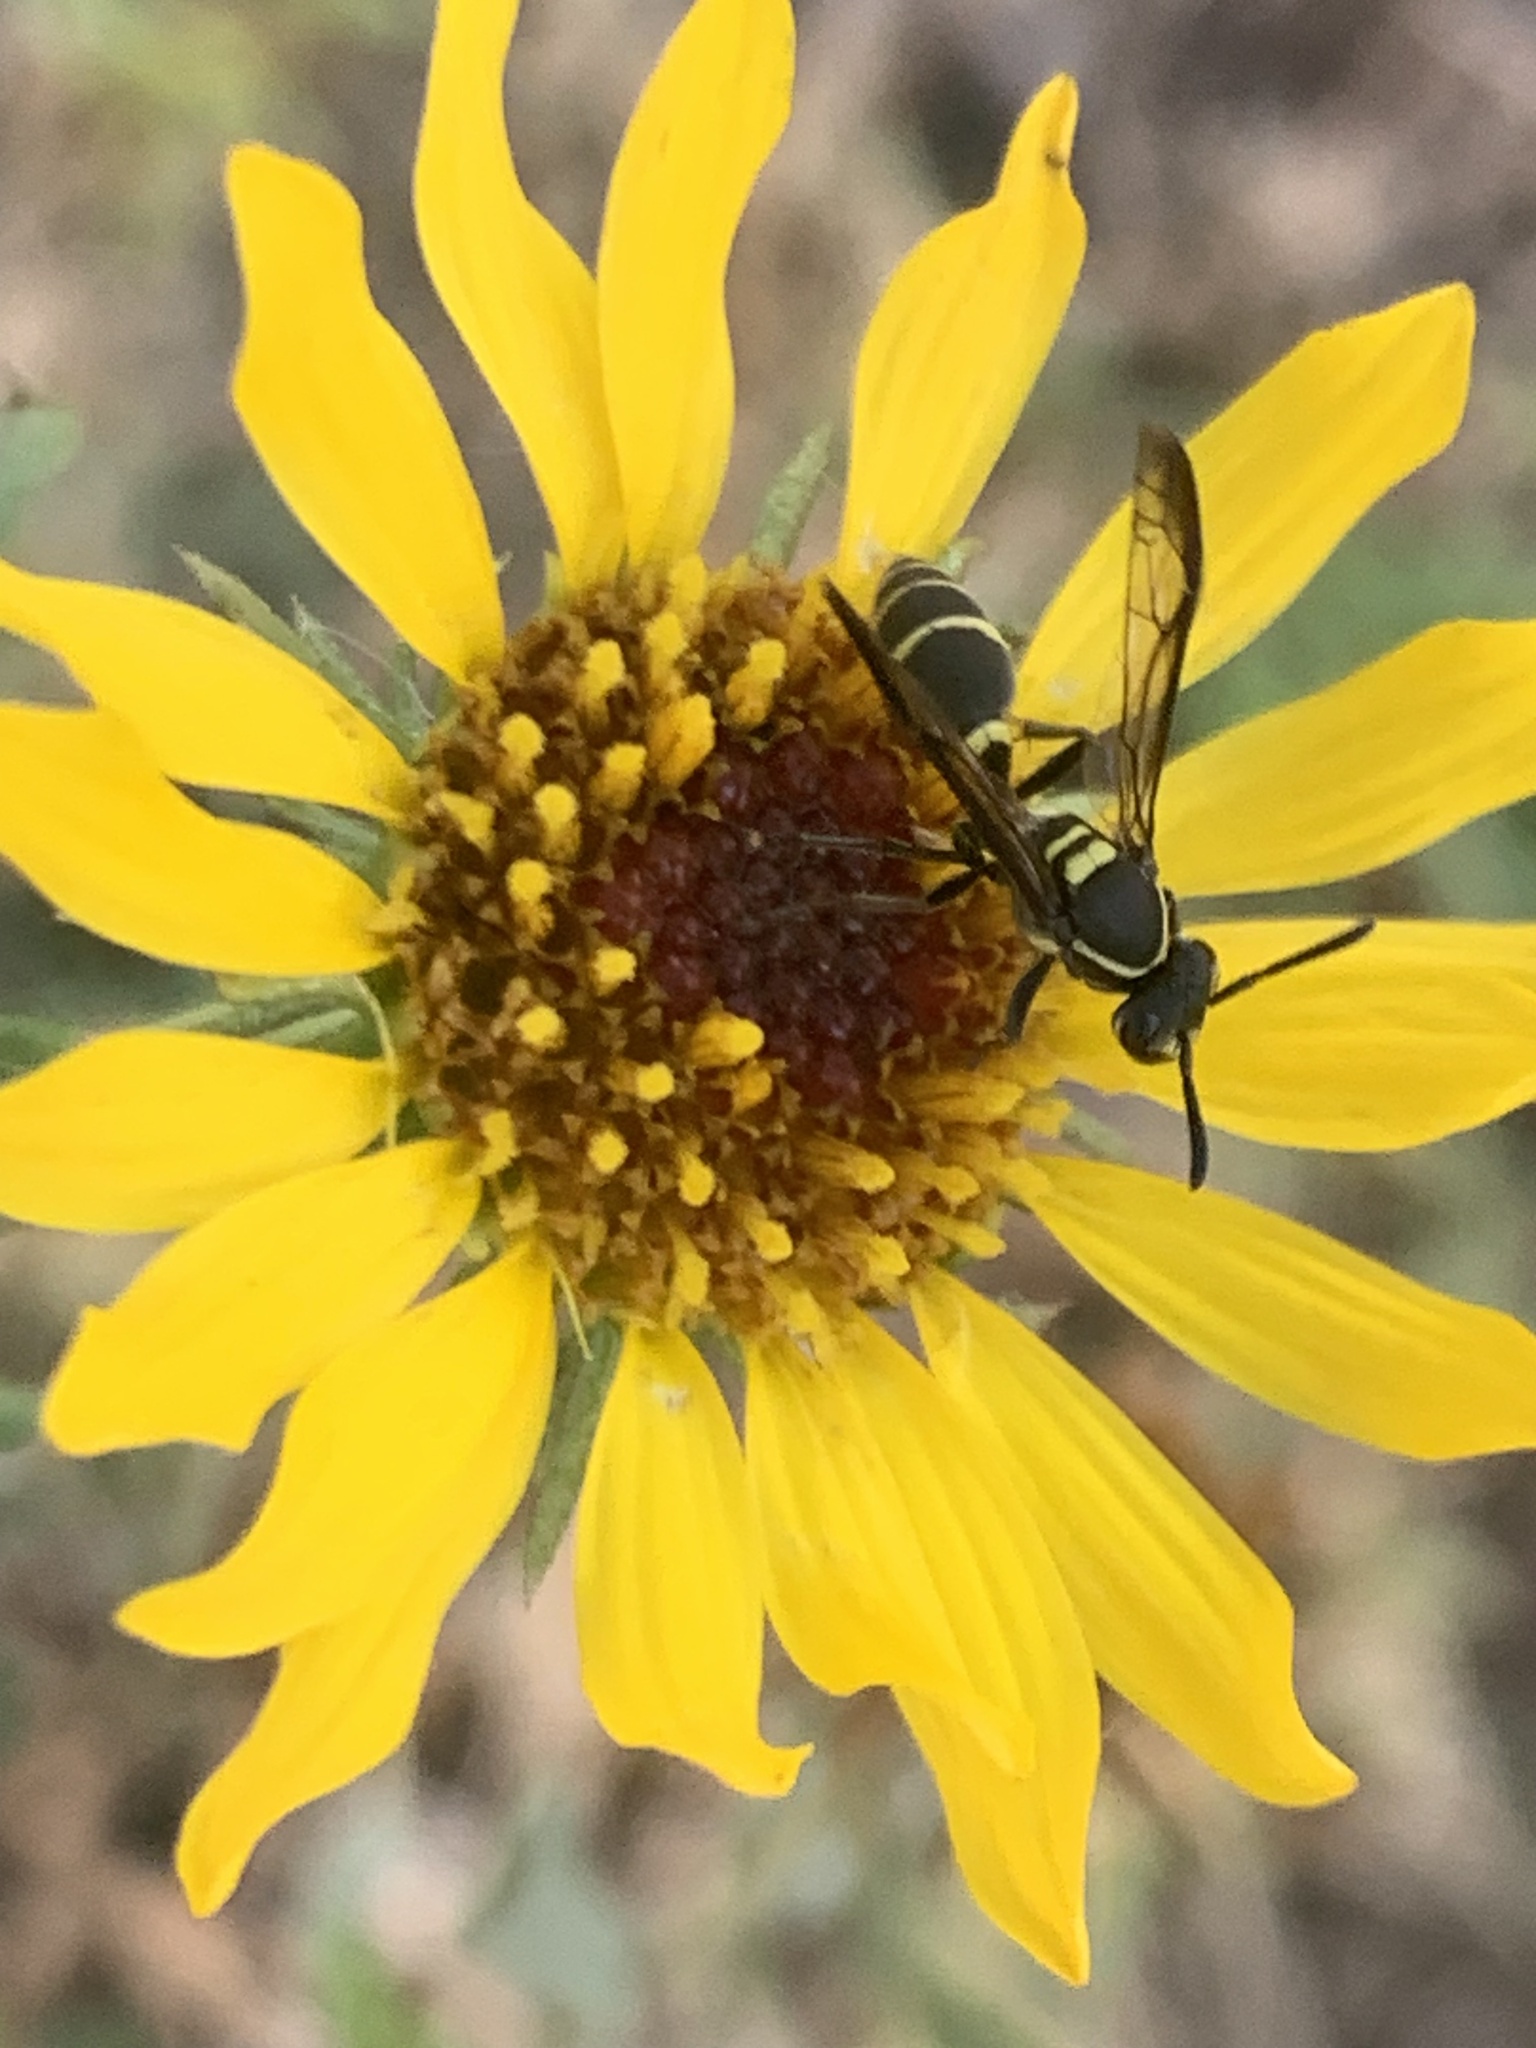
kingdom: Animalia
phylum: Arthropoda
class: Insecta
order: Hymenoptera
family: Eumenidae
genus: Polybia
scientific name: Polybia occidentalis
